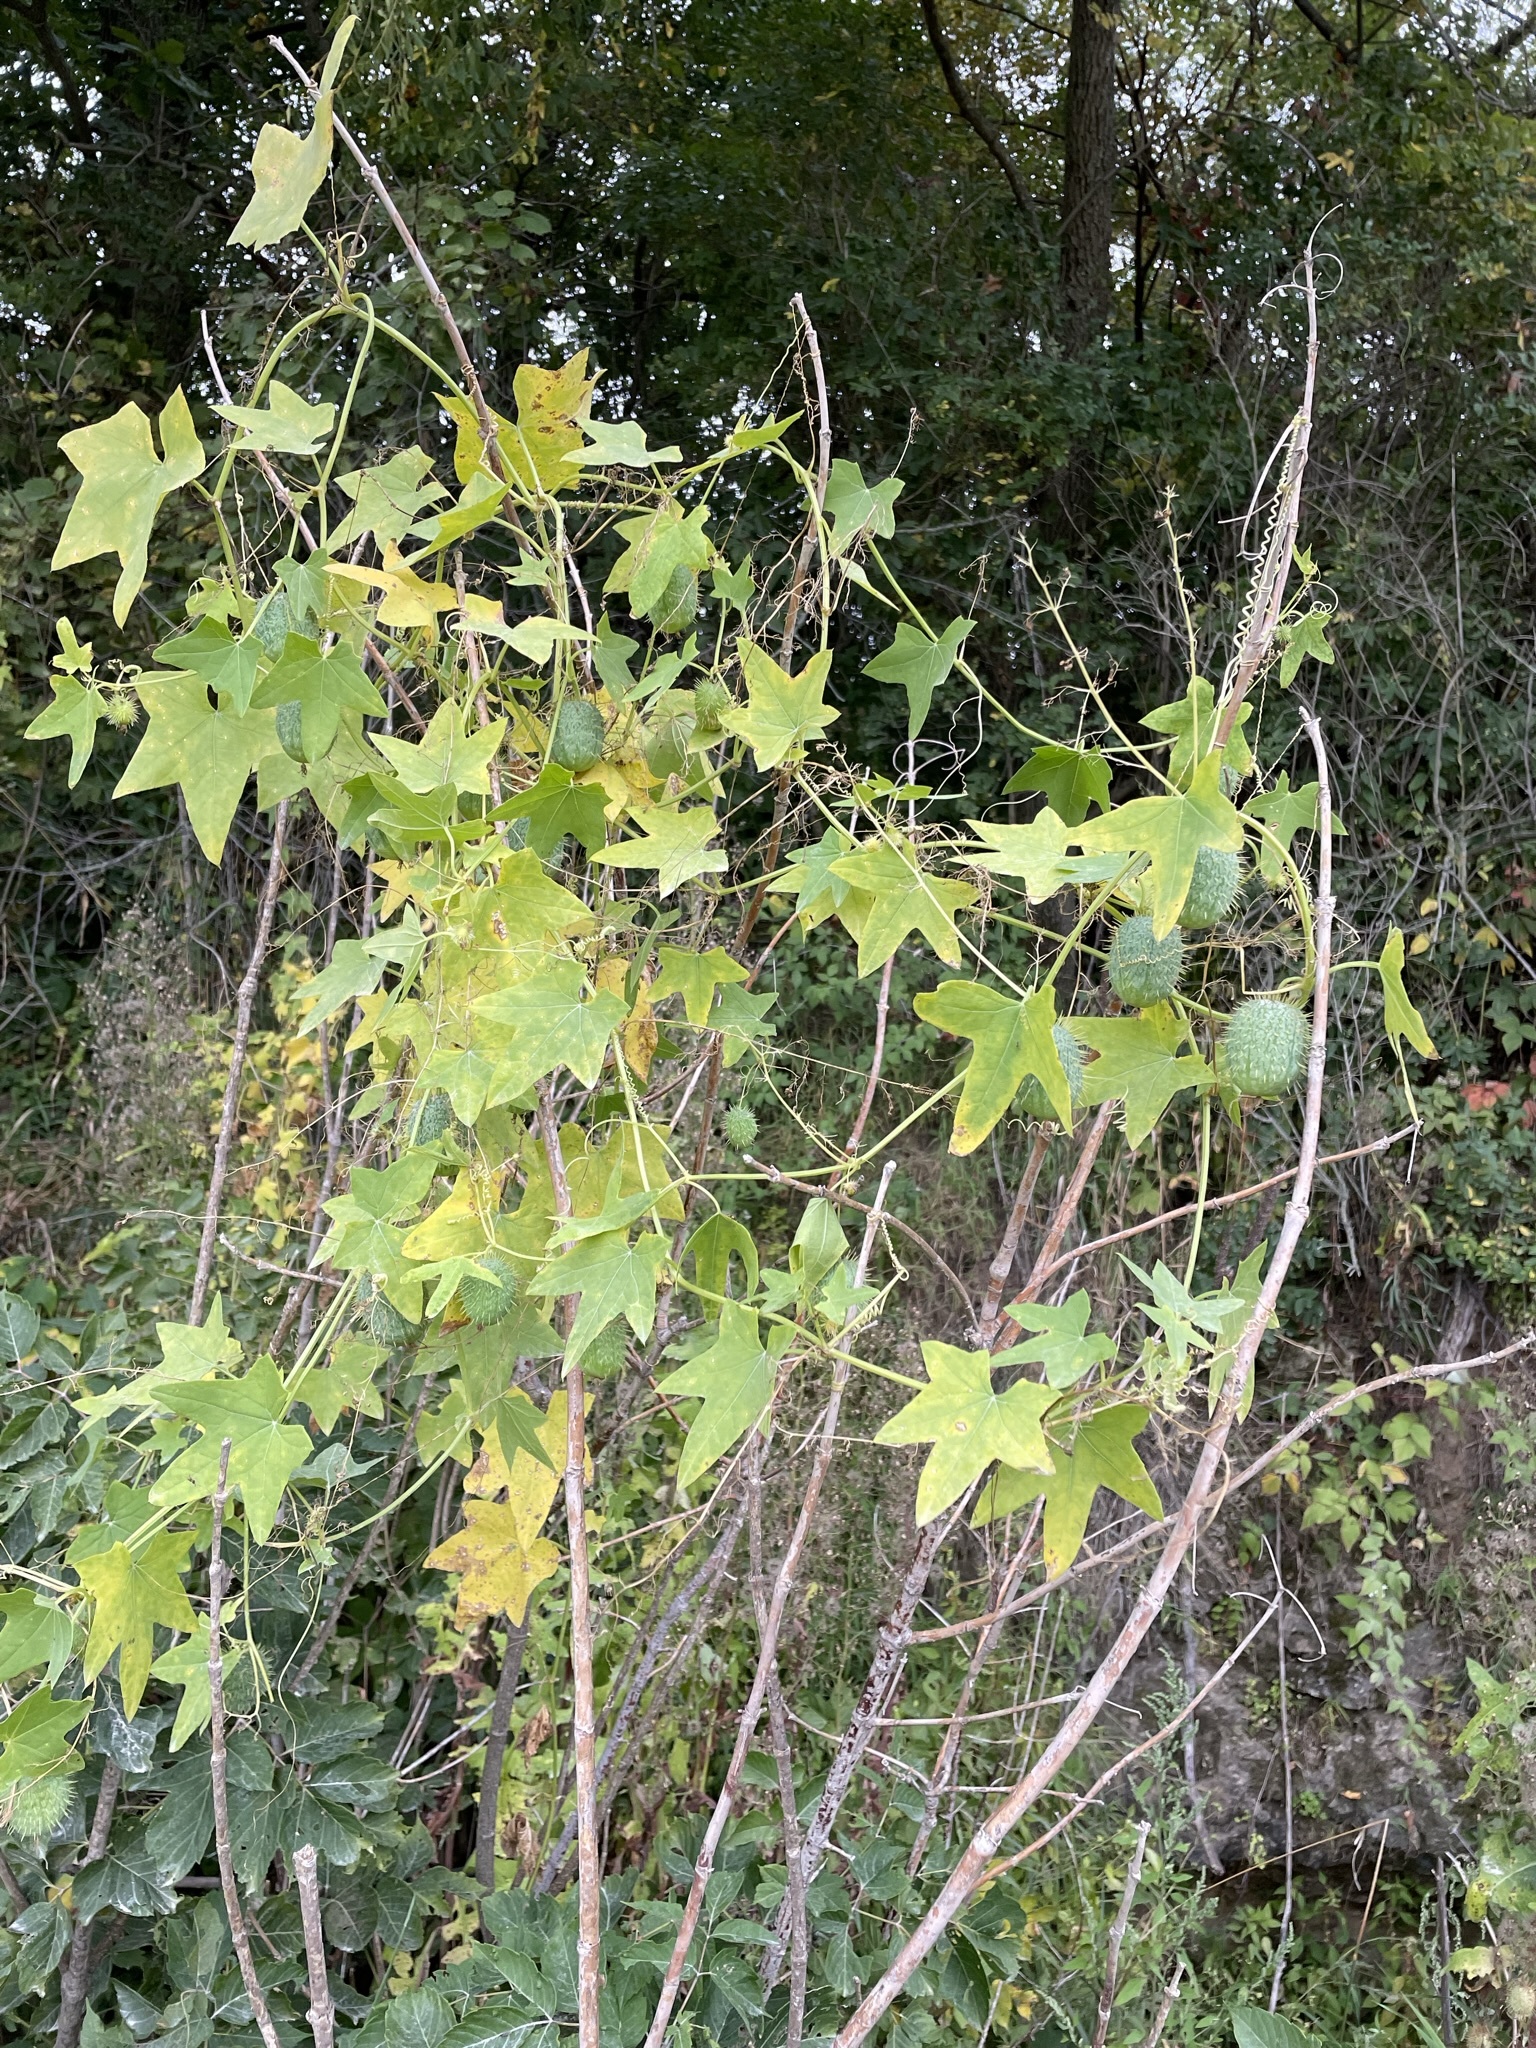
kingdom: Plantae
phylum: Tracheophyta
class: Magnoliopsida
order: Cucurbitales
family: Cucurbitaceae
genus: Echinocystis
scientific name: Echinocystis lobata
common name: Wild cucumber
